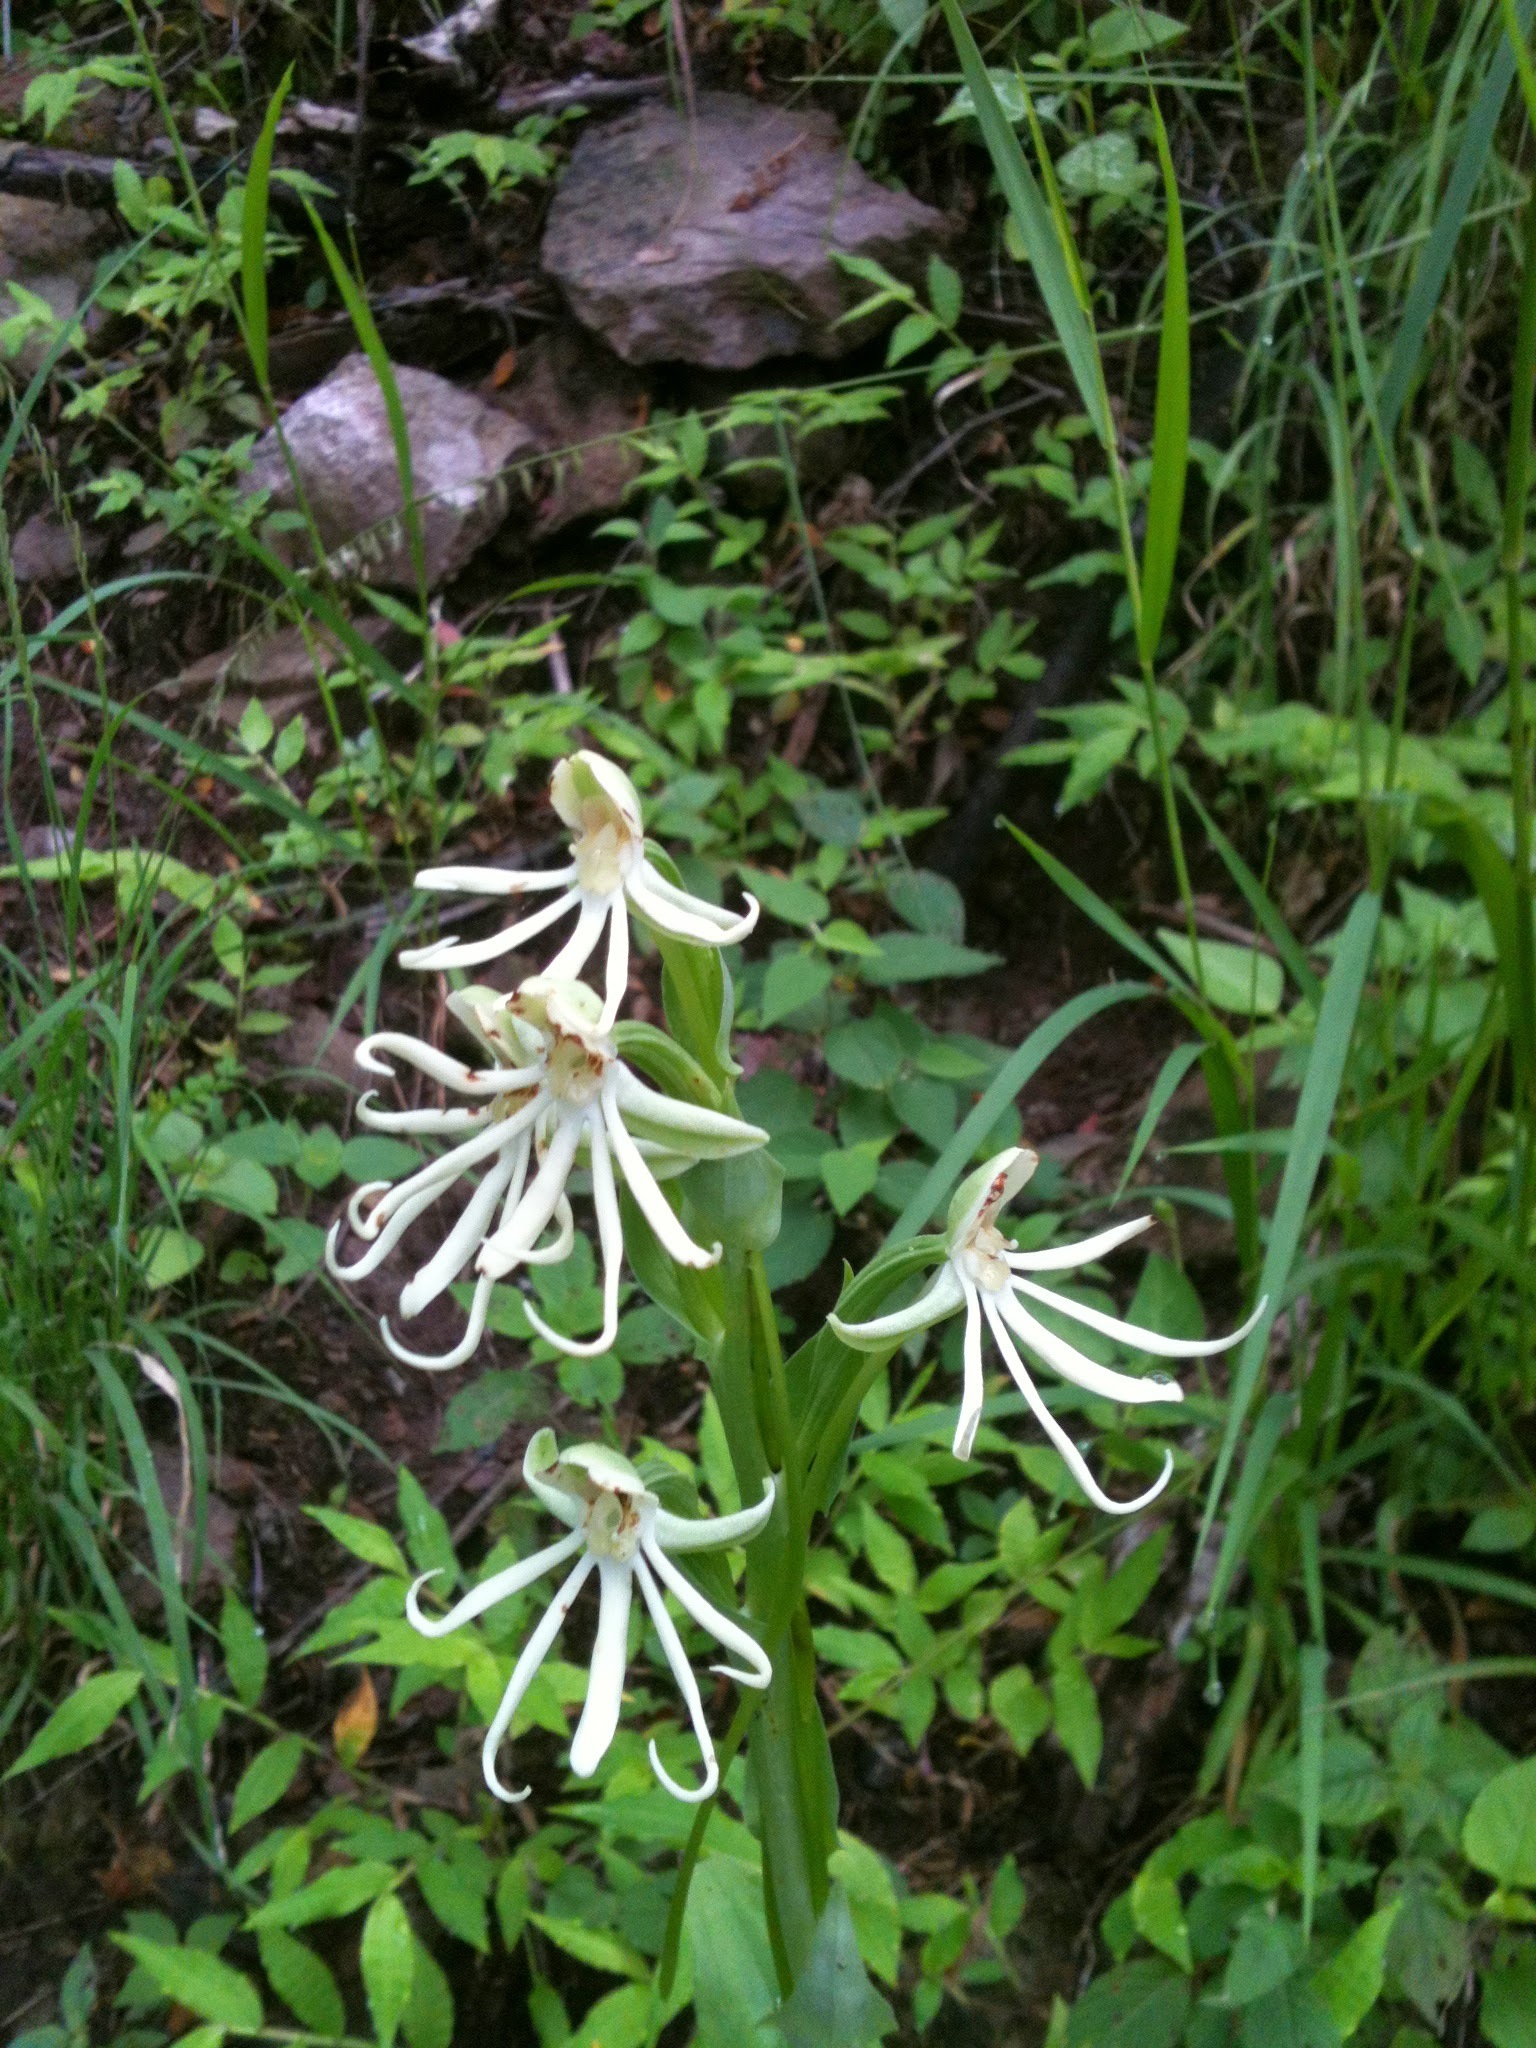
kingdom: Plantae
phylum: Tracheophyta
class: Liliopsida
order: Asparagales
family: Orchidaceae
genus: Habenaria
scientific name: Habenaria macroceratitis
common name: Big-horn bog orchid
